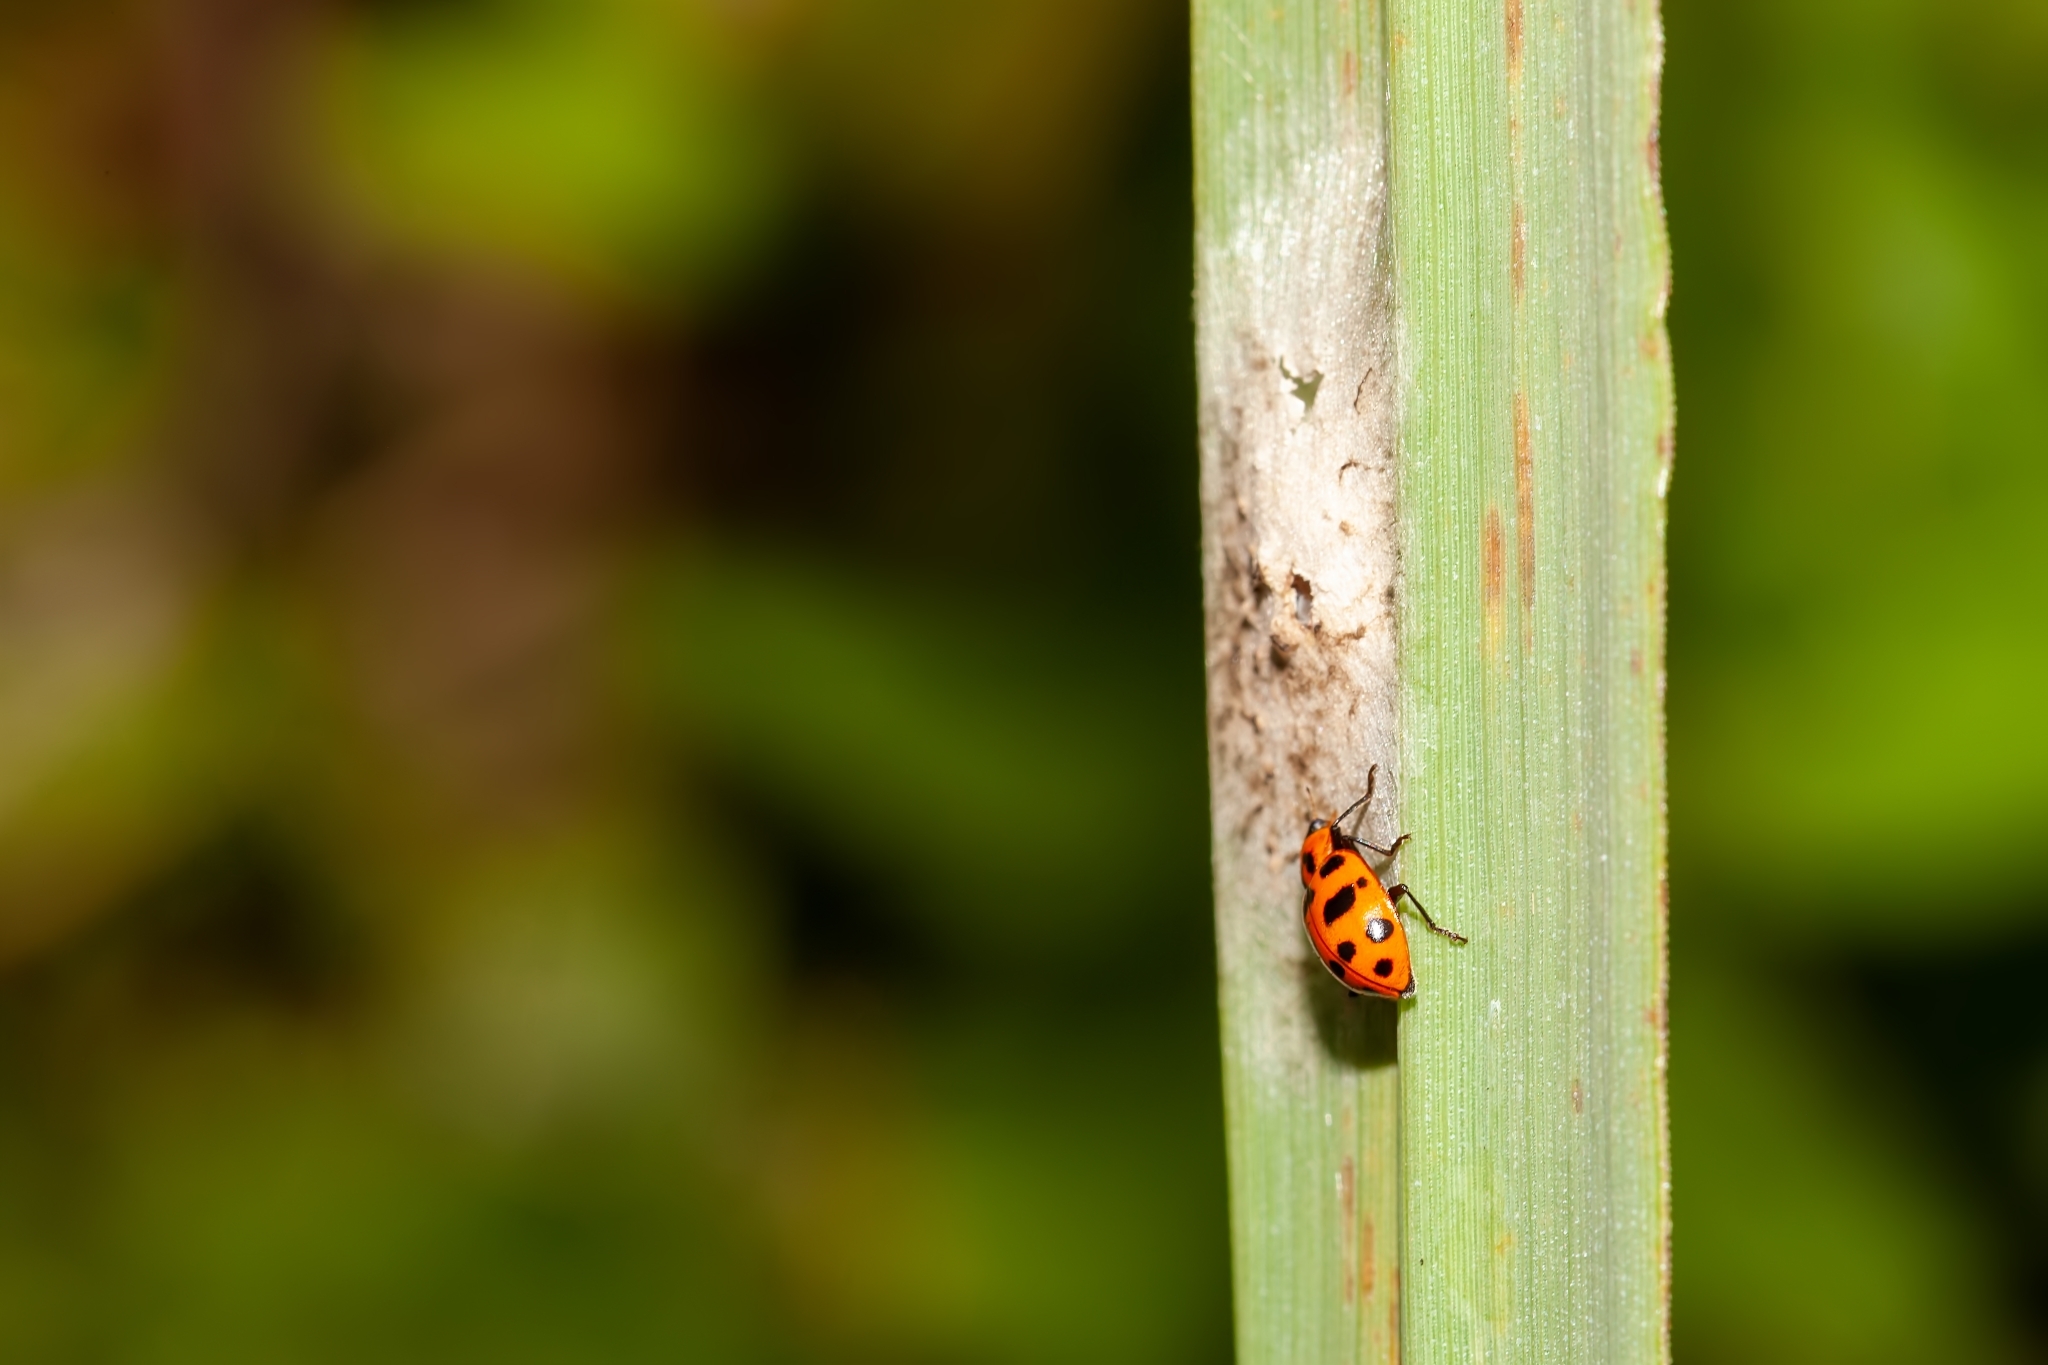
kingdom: Animalia
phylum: Arthropoda
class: Insecta
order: Coleoptera
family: Coccinellidae
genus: Coleomegilla
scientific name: Coleomegilla maculata
